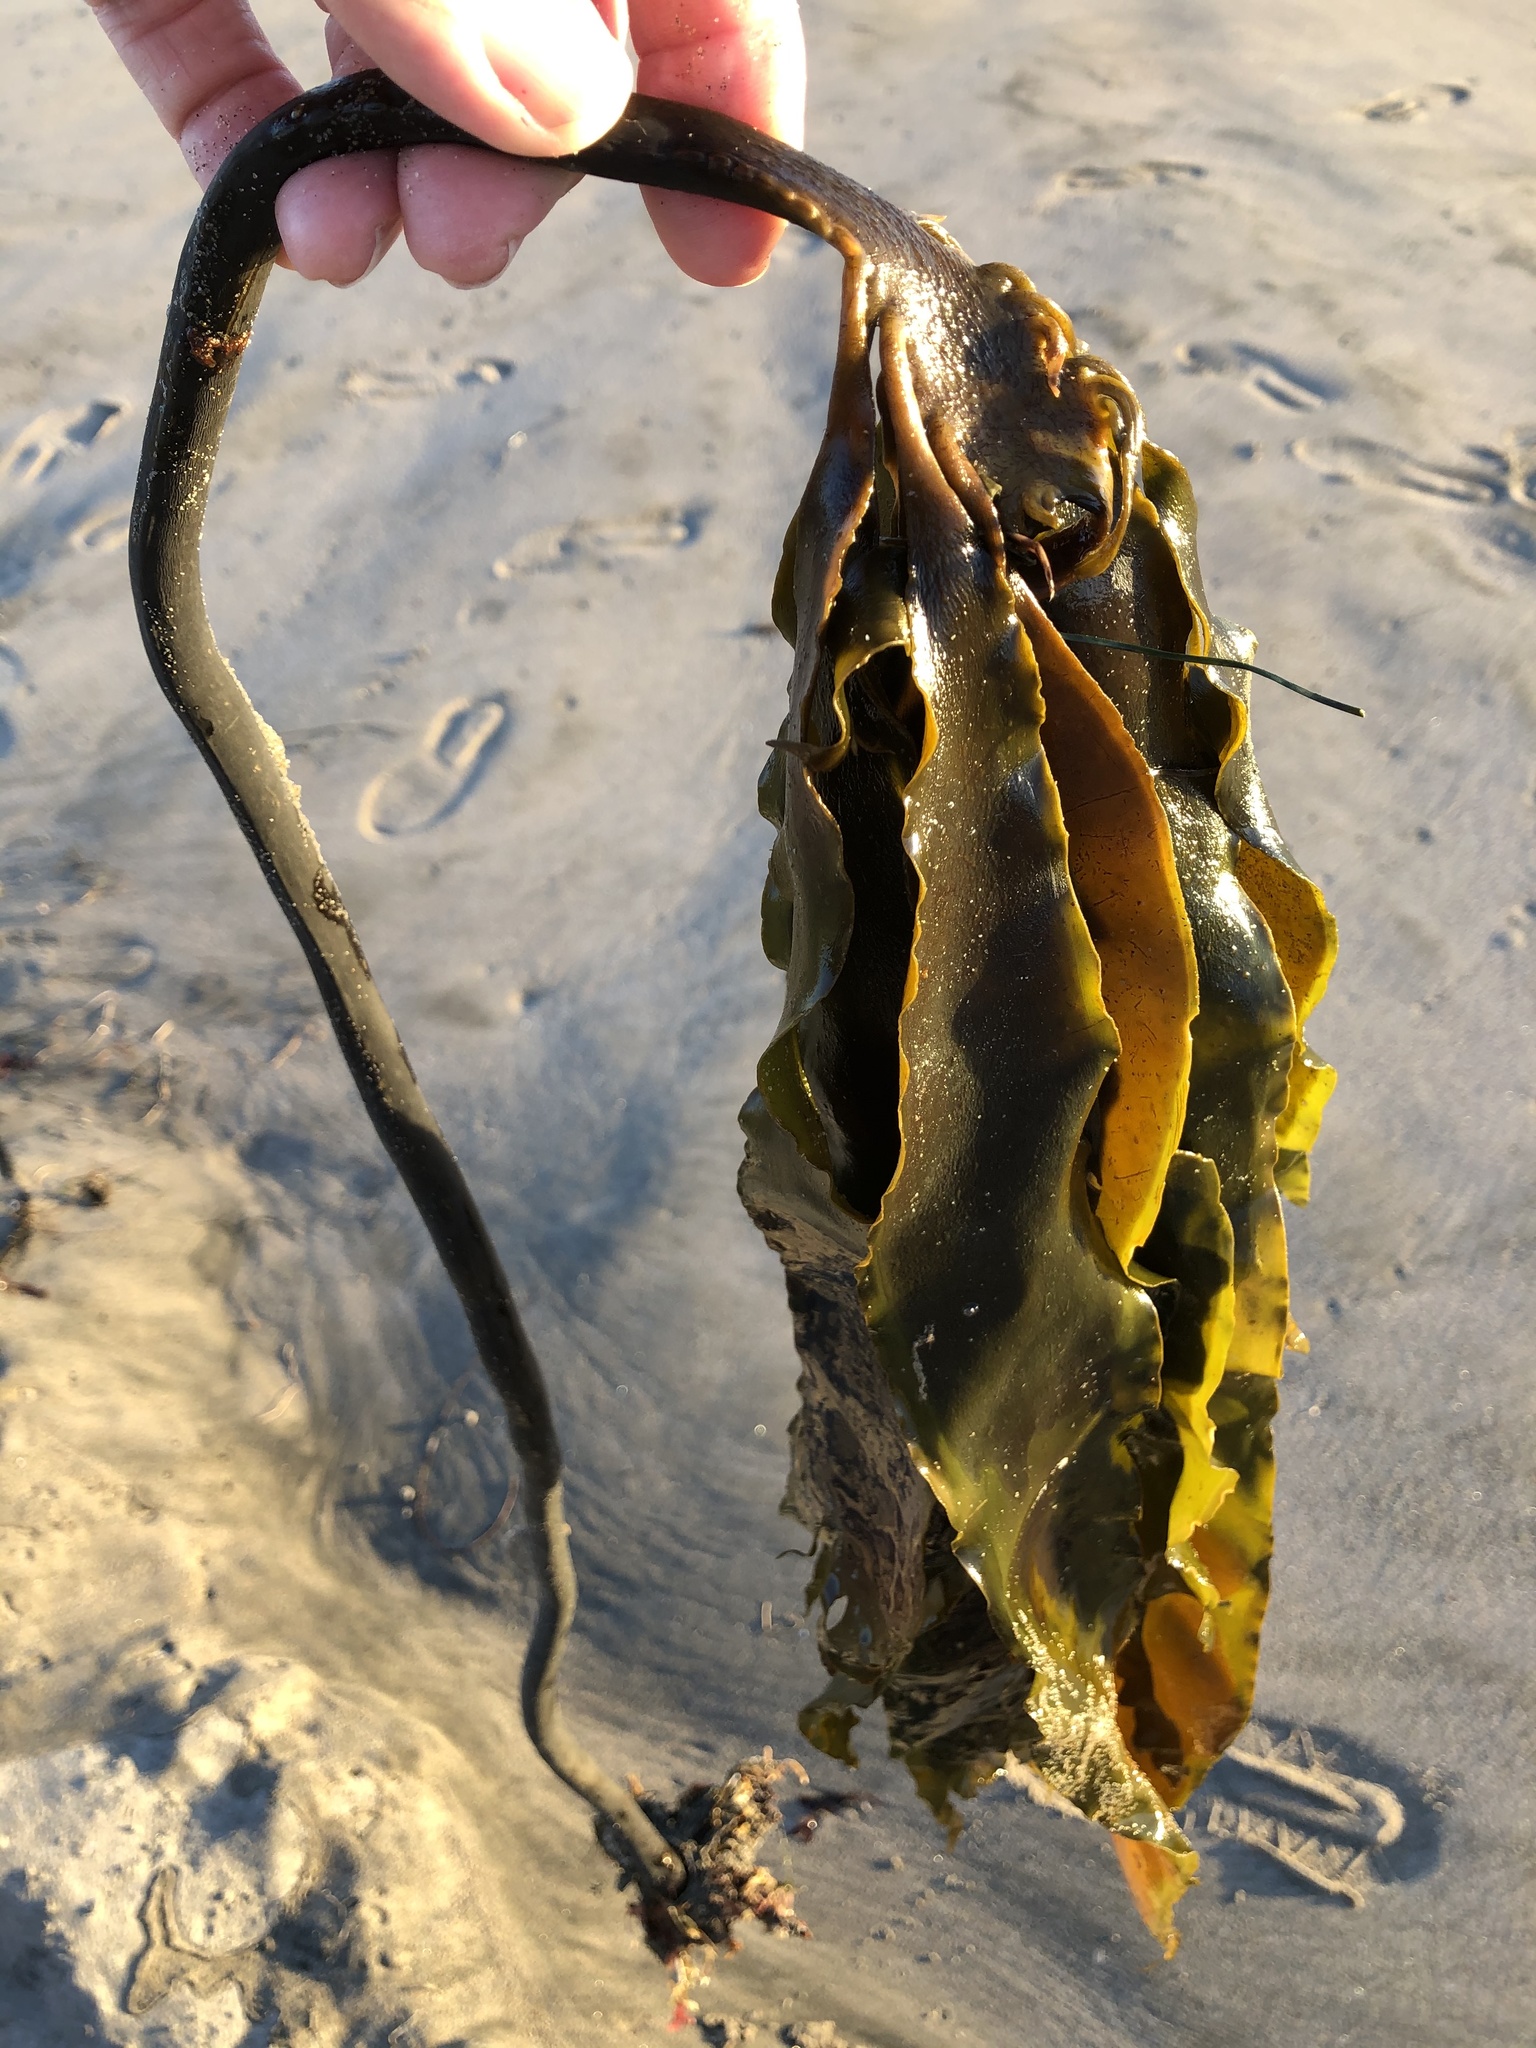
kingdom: Chromista
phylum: Ochrophyta
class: Phaeophyceae
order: Laminariales
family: Alariaceae
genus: Pterygophora
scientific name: Pterygophora californica
